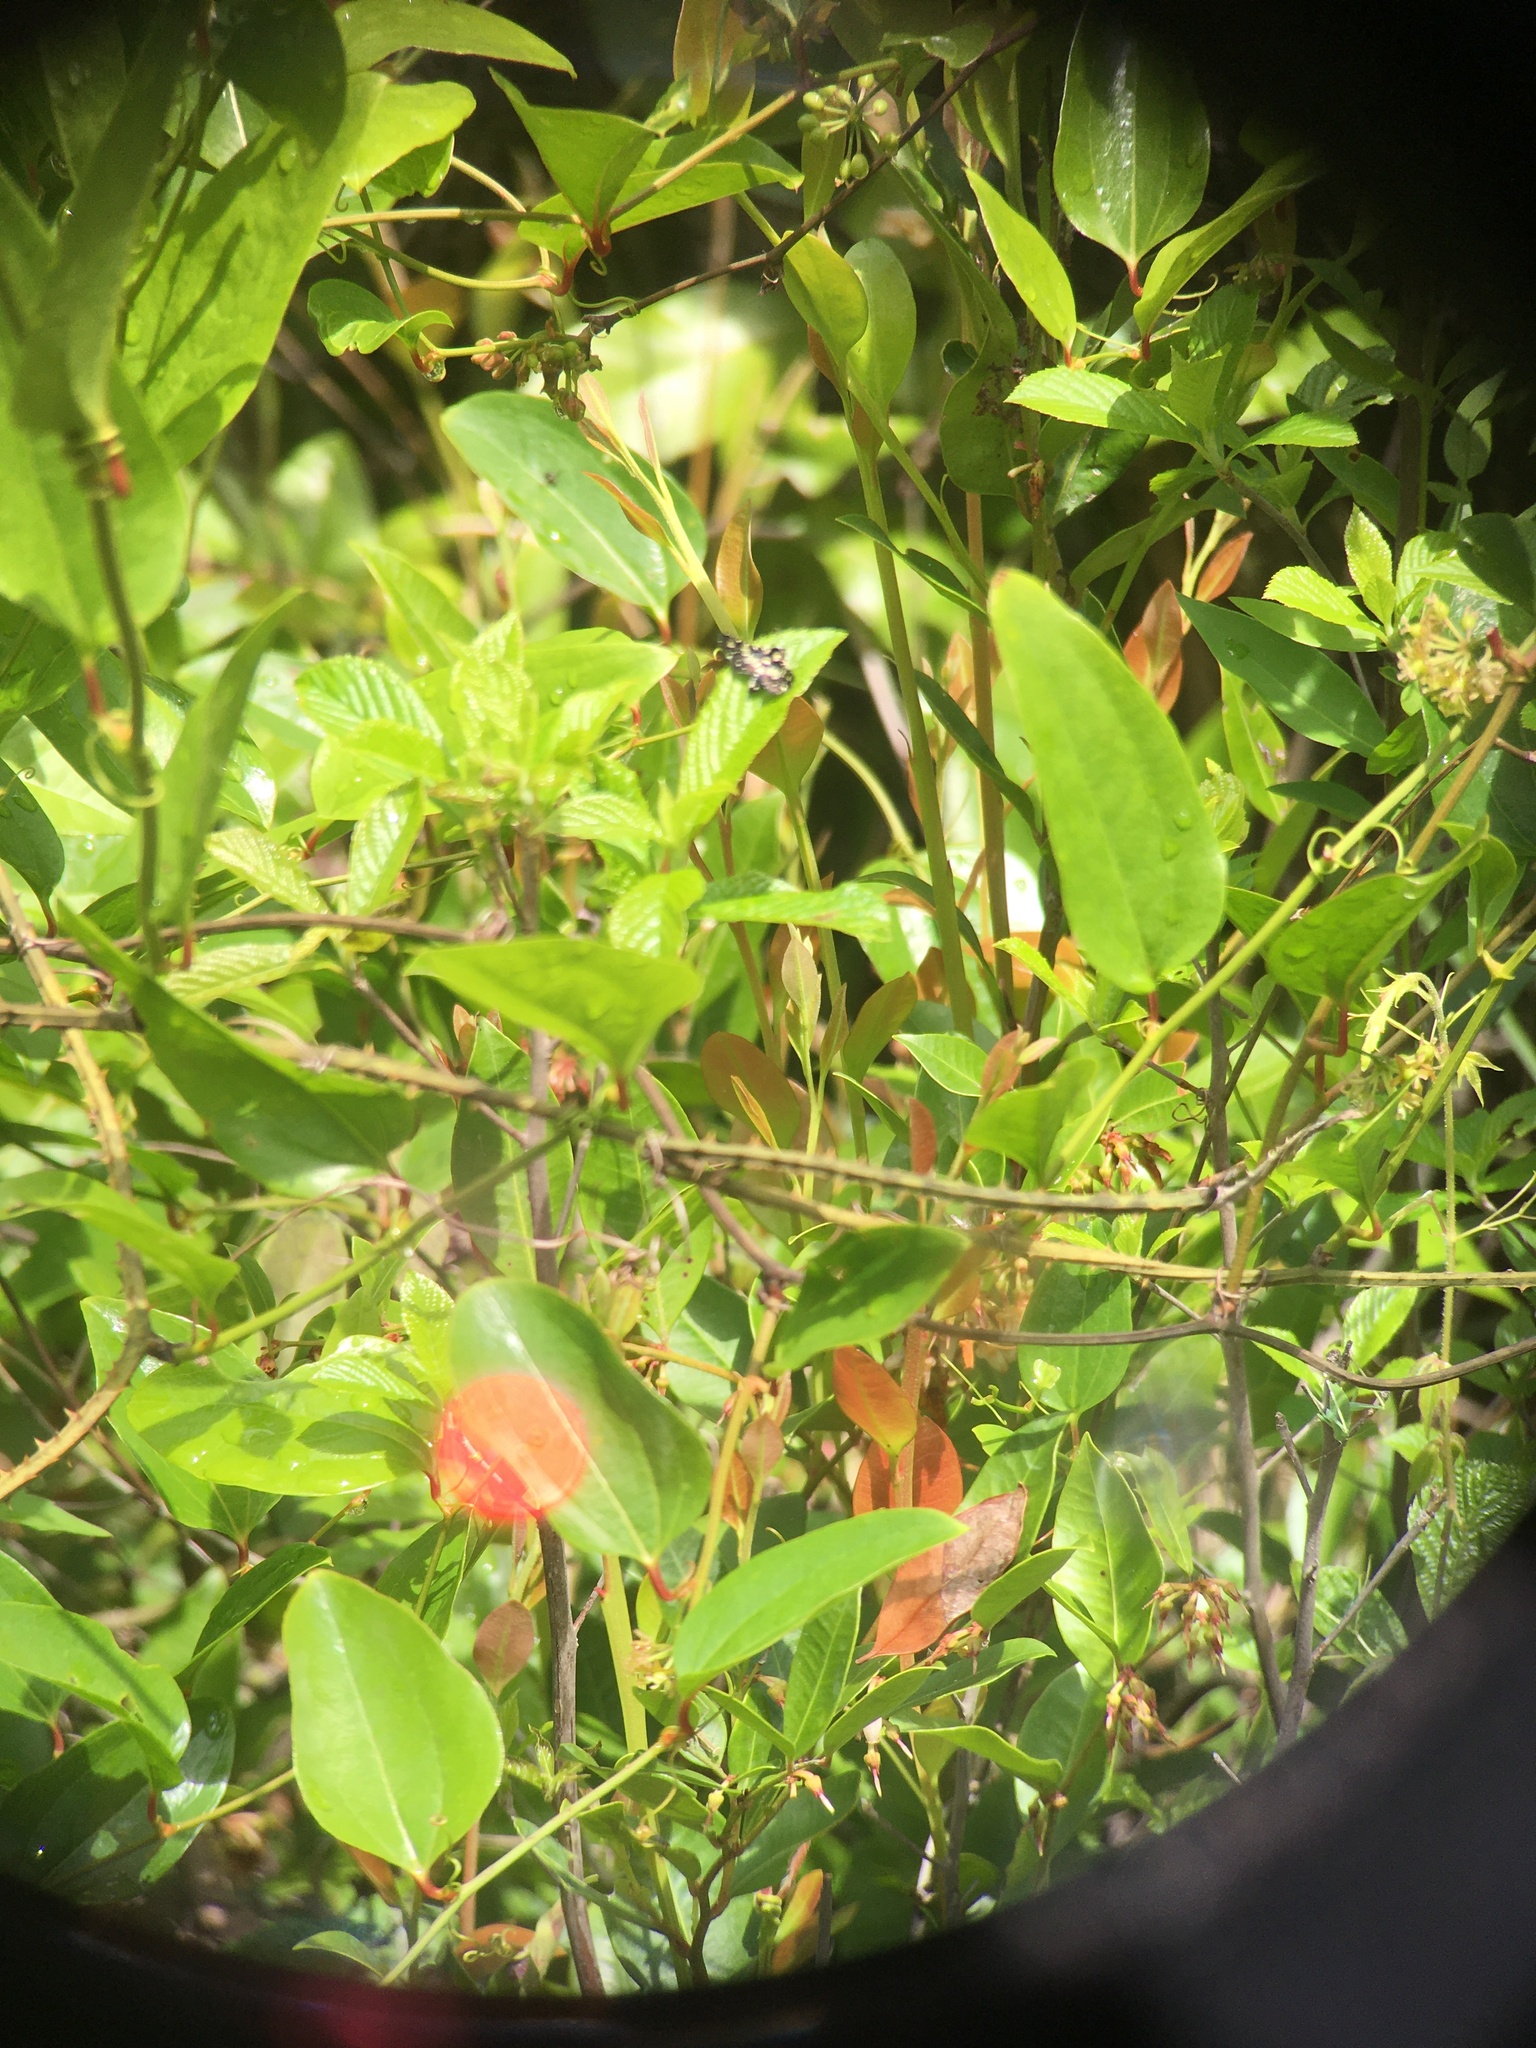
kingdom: Animalia
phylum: Arthropoda
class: Insecta
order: Lepidoptera
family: Thyrididae
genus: Pseudothyris
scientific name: Pseudothyris sepulchralis
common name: Mournful thyris moth
